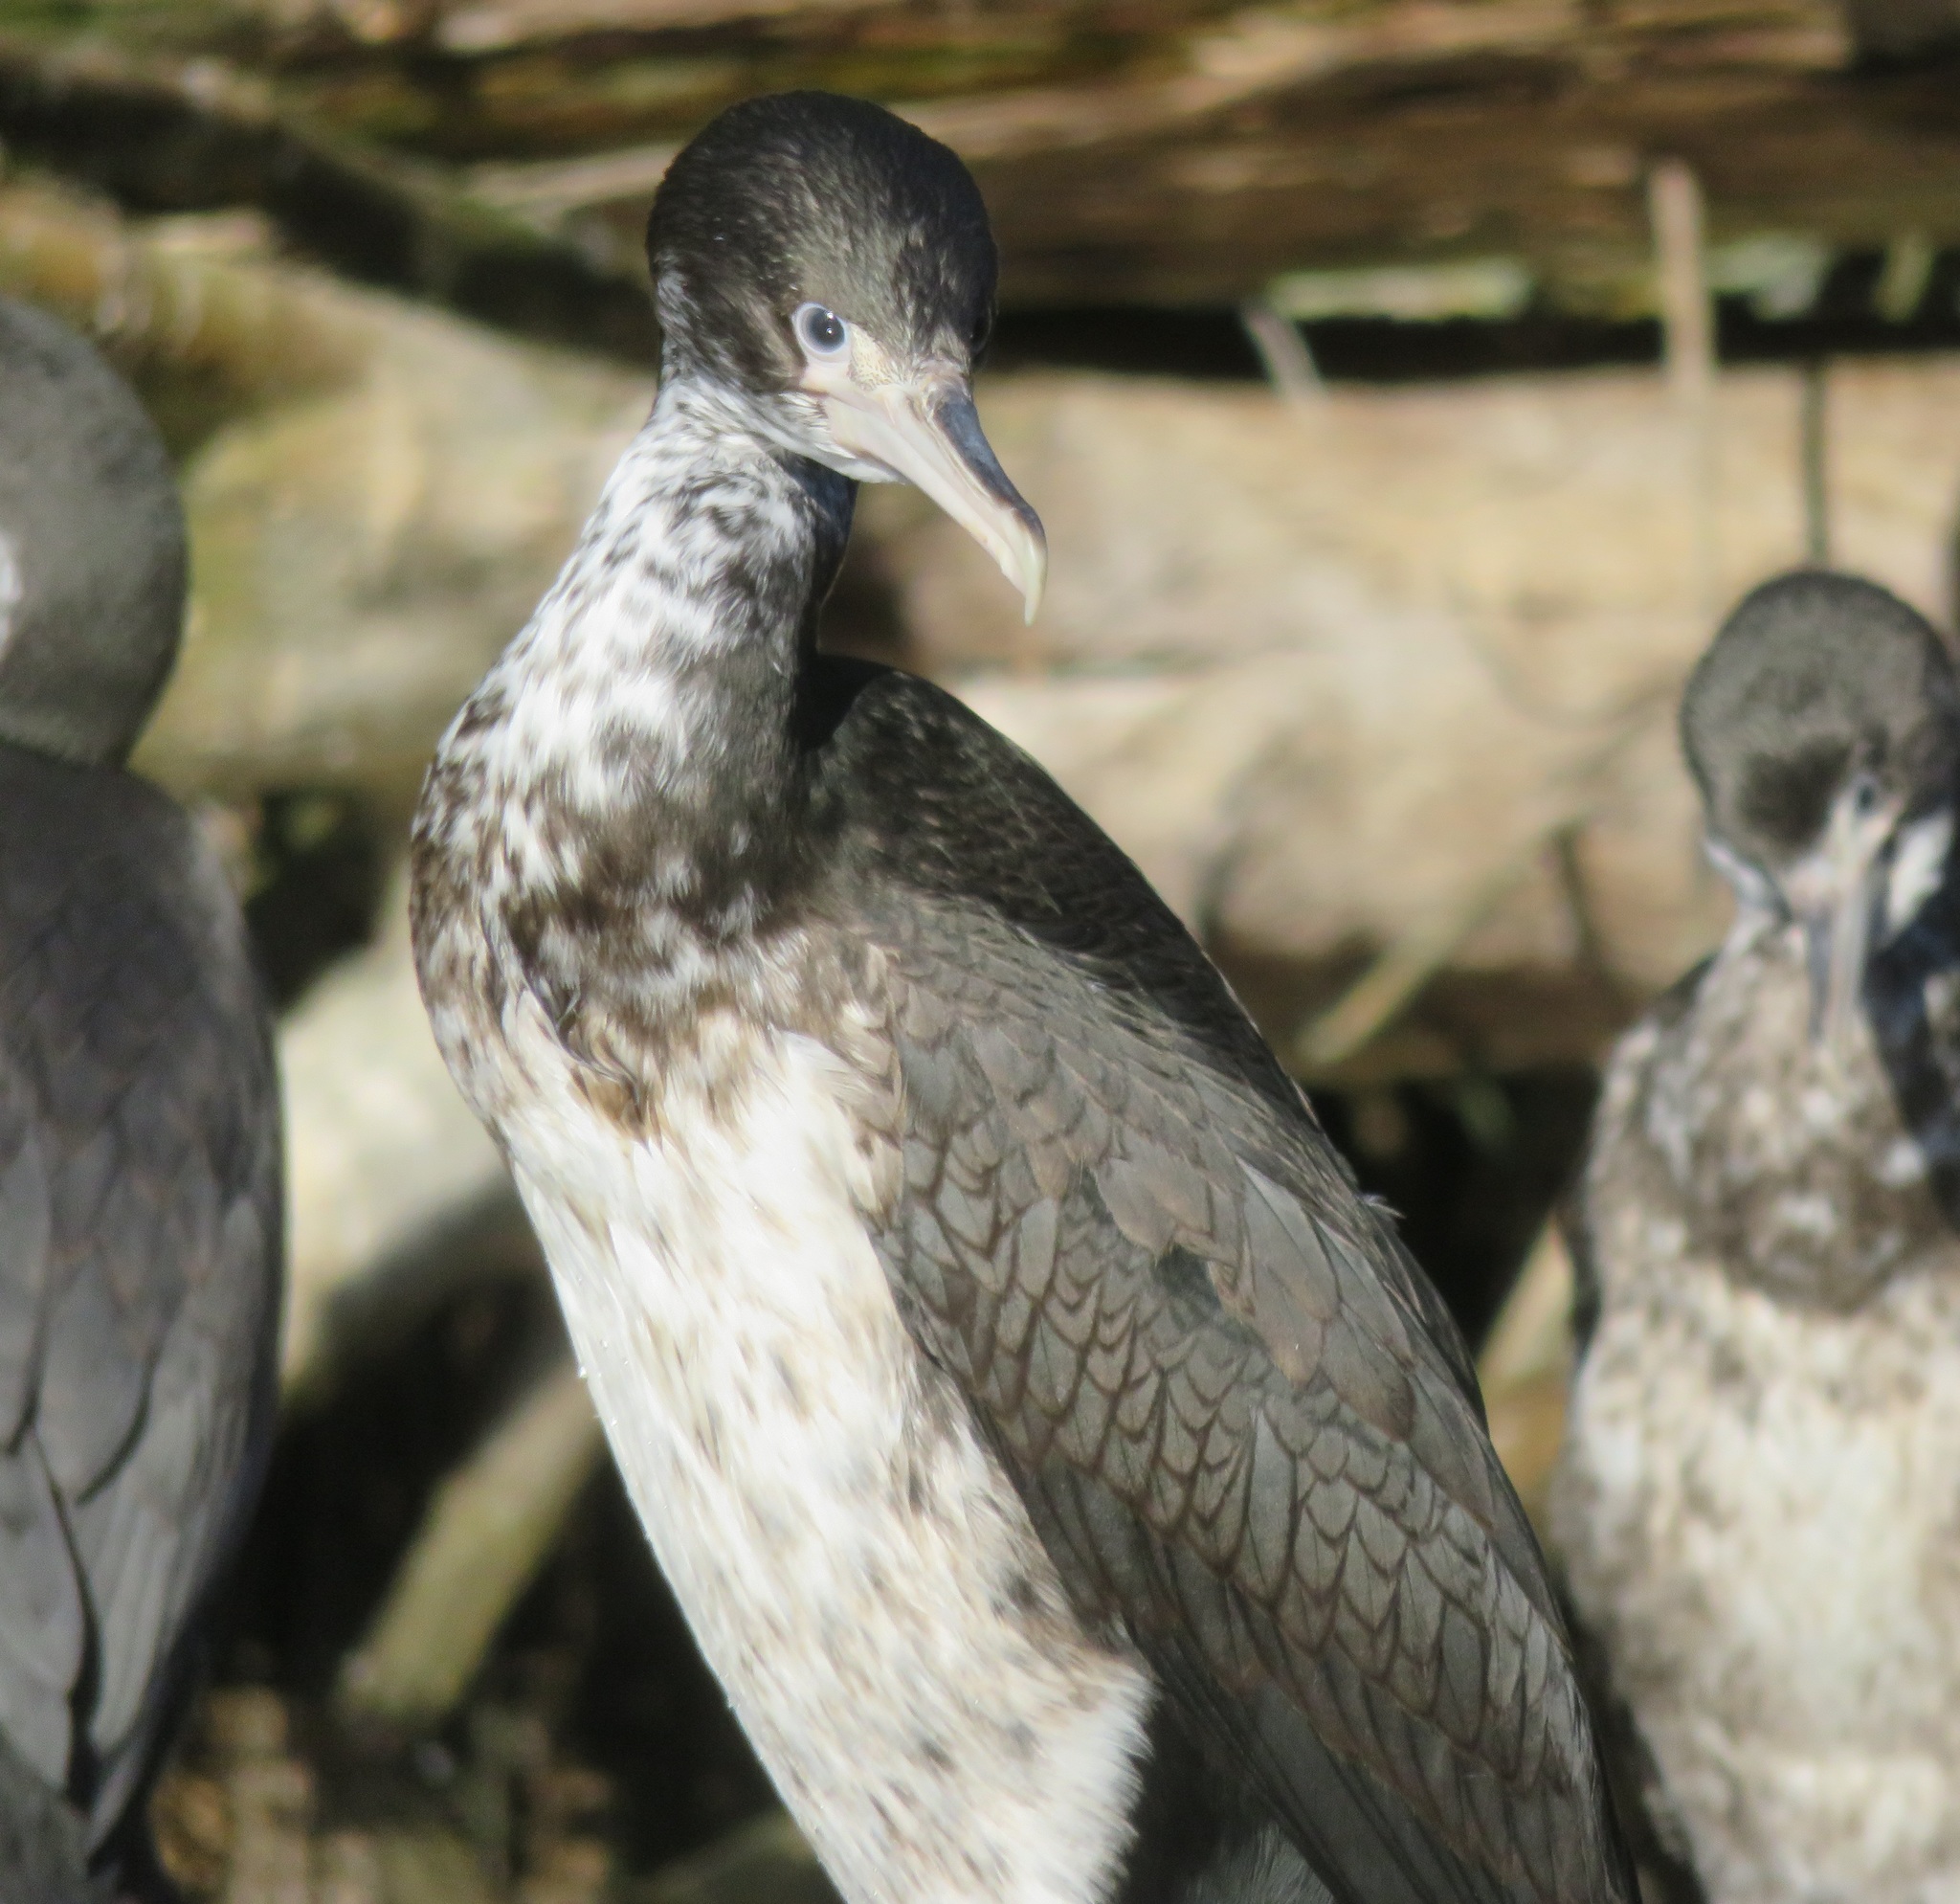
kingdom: Animalia
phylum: Chordata
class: Aves
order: Suliformes
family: Phalacrocoracidae
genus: Phalacrocorax
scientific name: Phalacrocorax varius
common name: Pied cormorant
